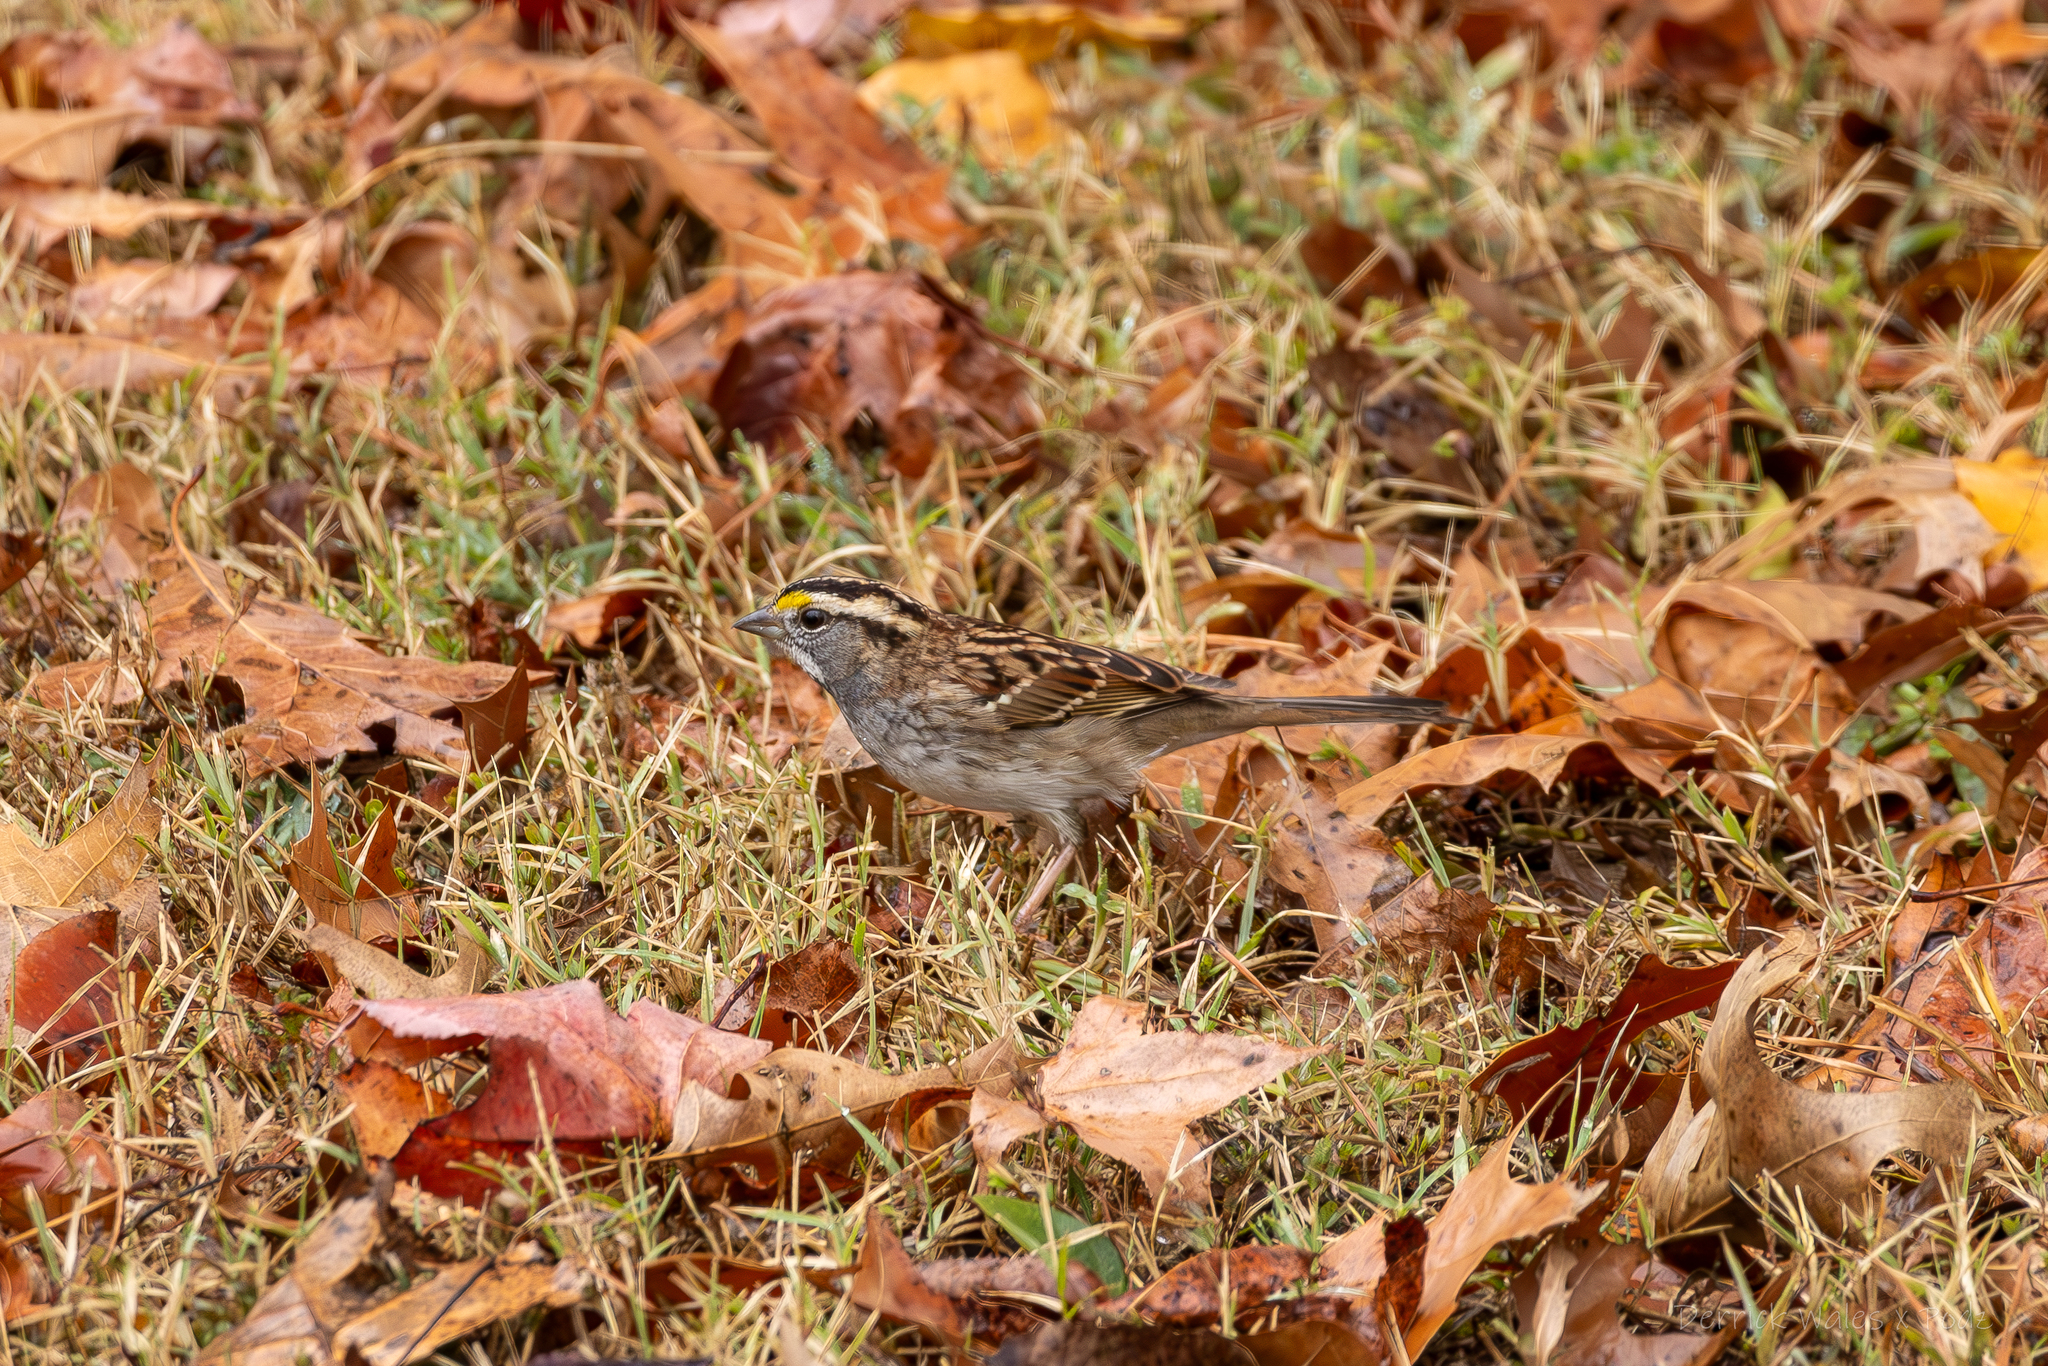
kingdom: Animalia
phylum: Chordata
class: Aves
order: Passeriformes
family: Passerellidae
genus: Zonotrichia
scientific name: Zonotrichia albicollis
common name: White-throated sparrow
